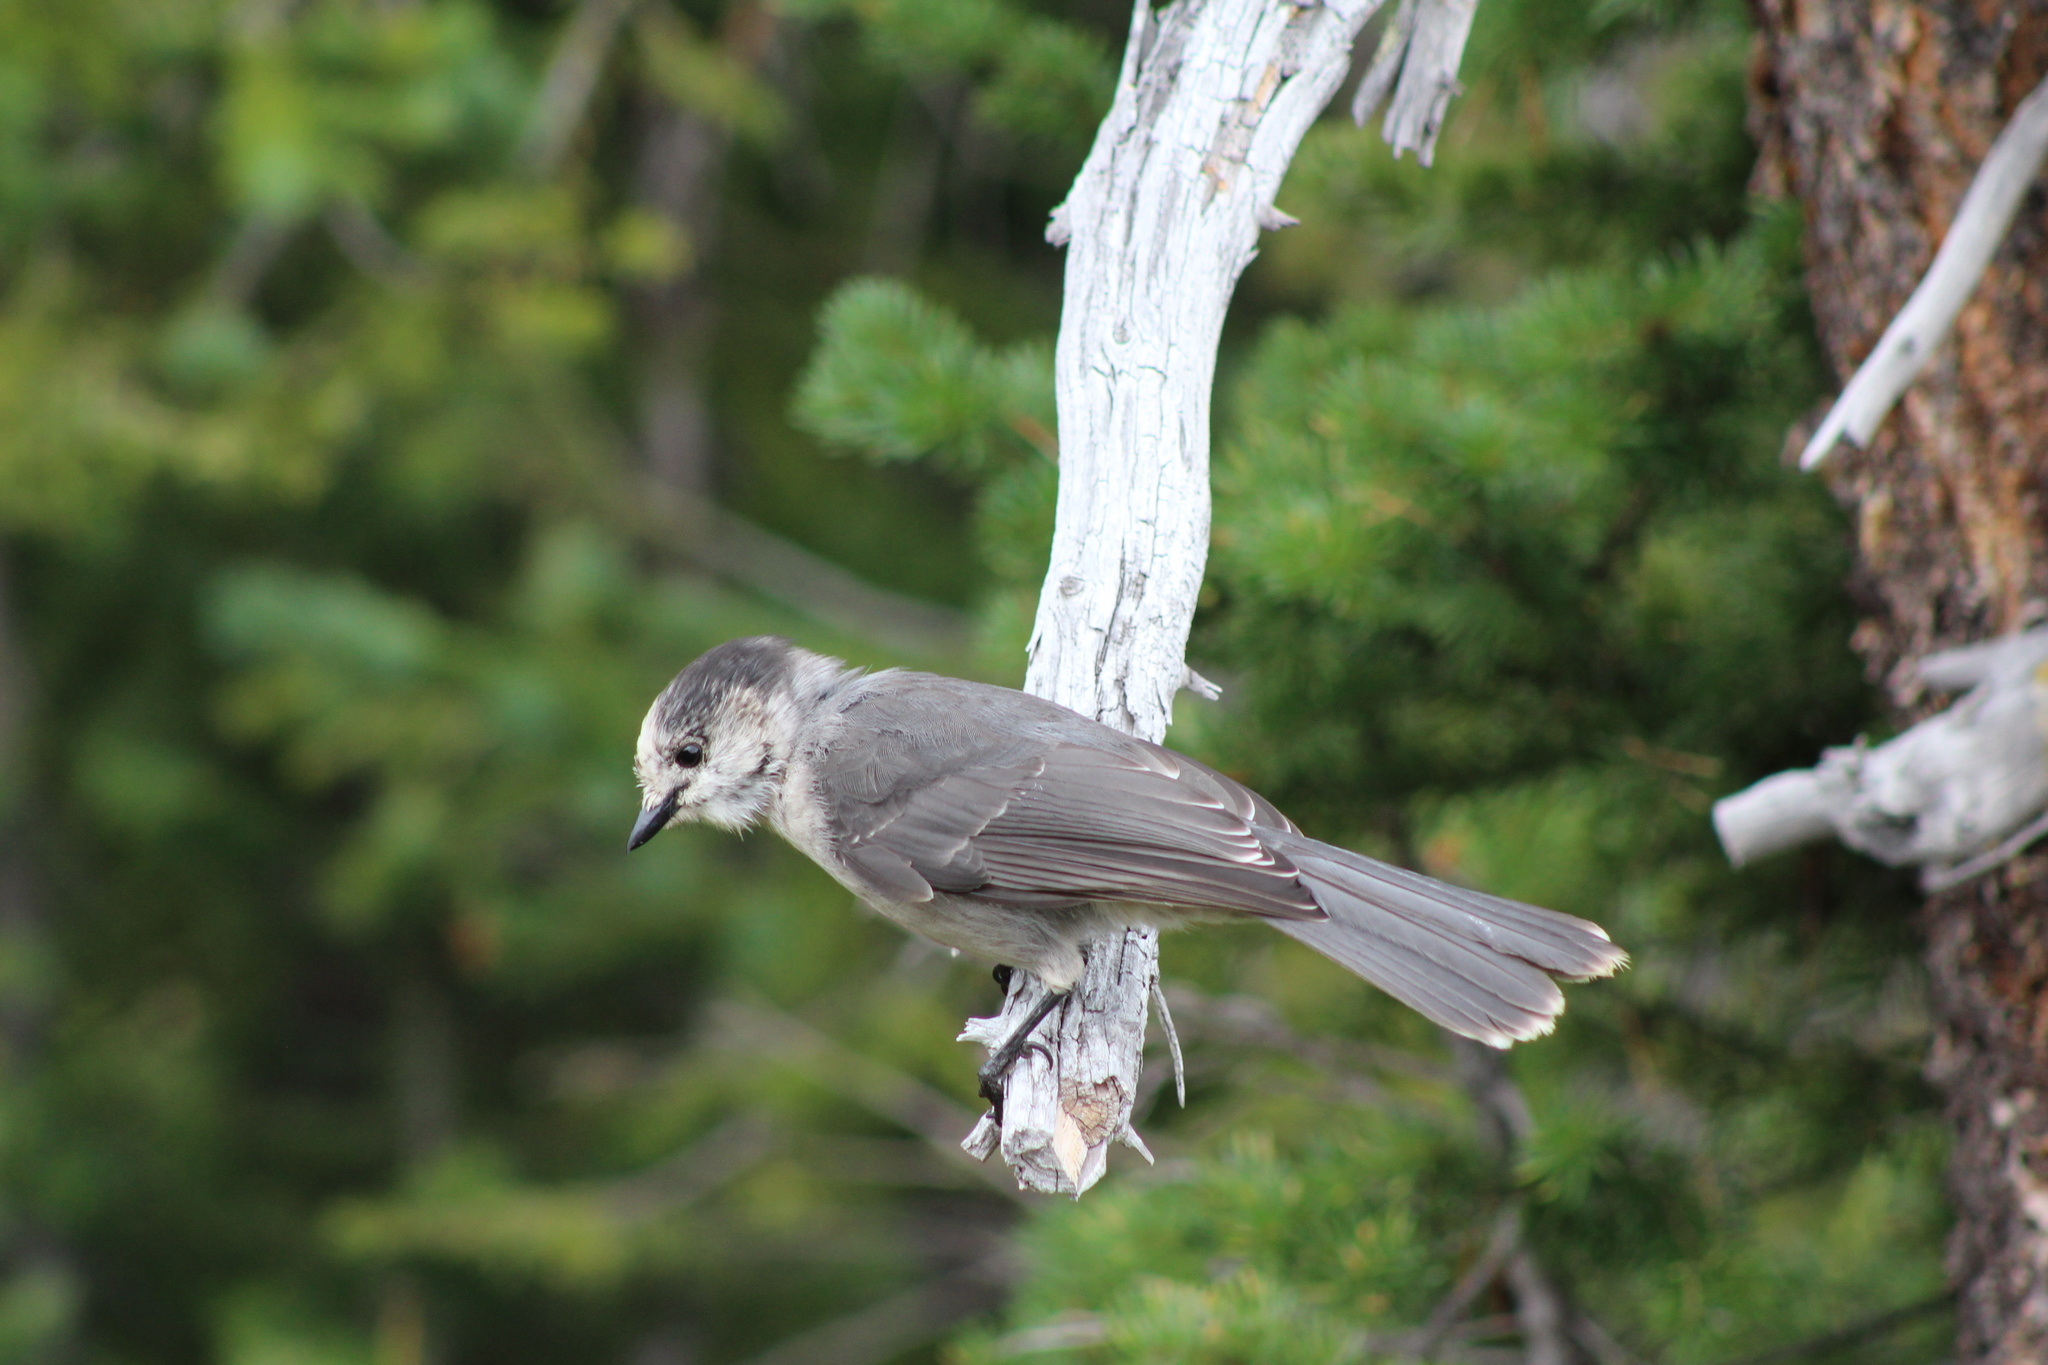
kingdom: Animalia
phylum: Chordata
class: Aves
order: Passeriformes
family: Corvidae
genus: Perisoreus
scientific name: Perisoreus canadensis
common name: Gray jay
